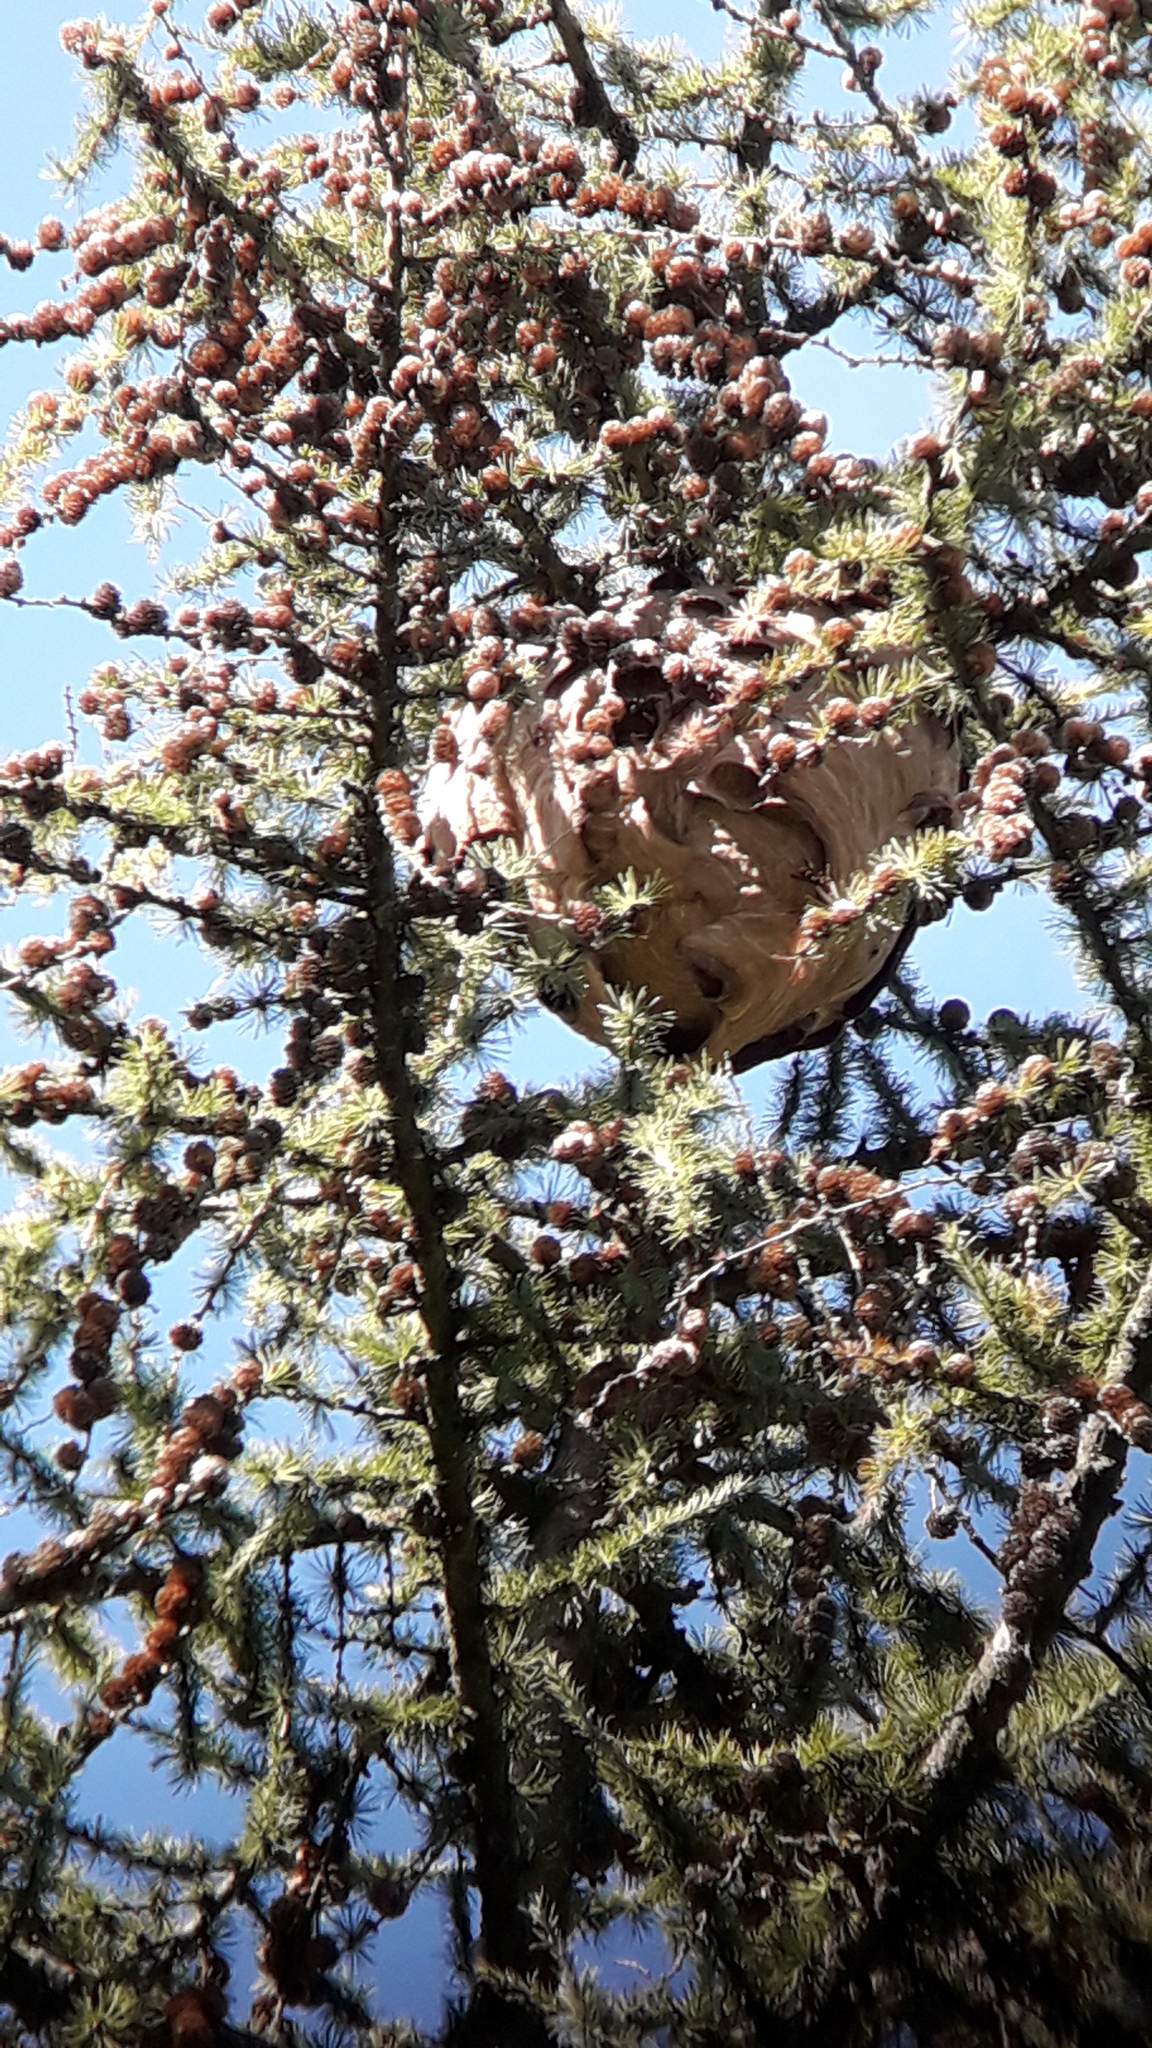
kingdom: Animalia
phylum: Arthropoda
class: Insecta
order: Hymenoptera
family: Vespidae
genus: Vespa
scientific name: Vespa velutina
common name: Asian hornet
